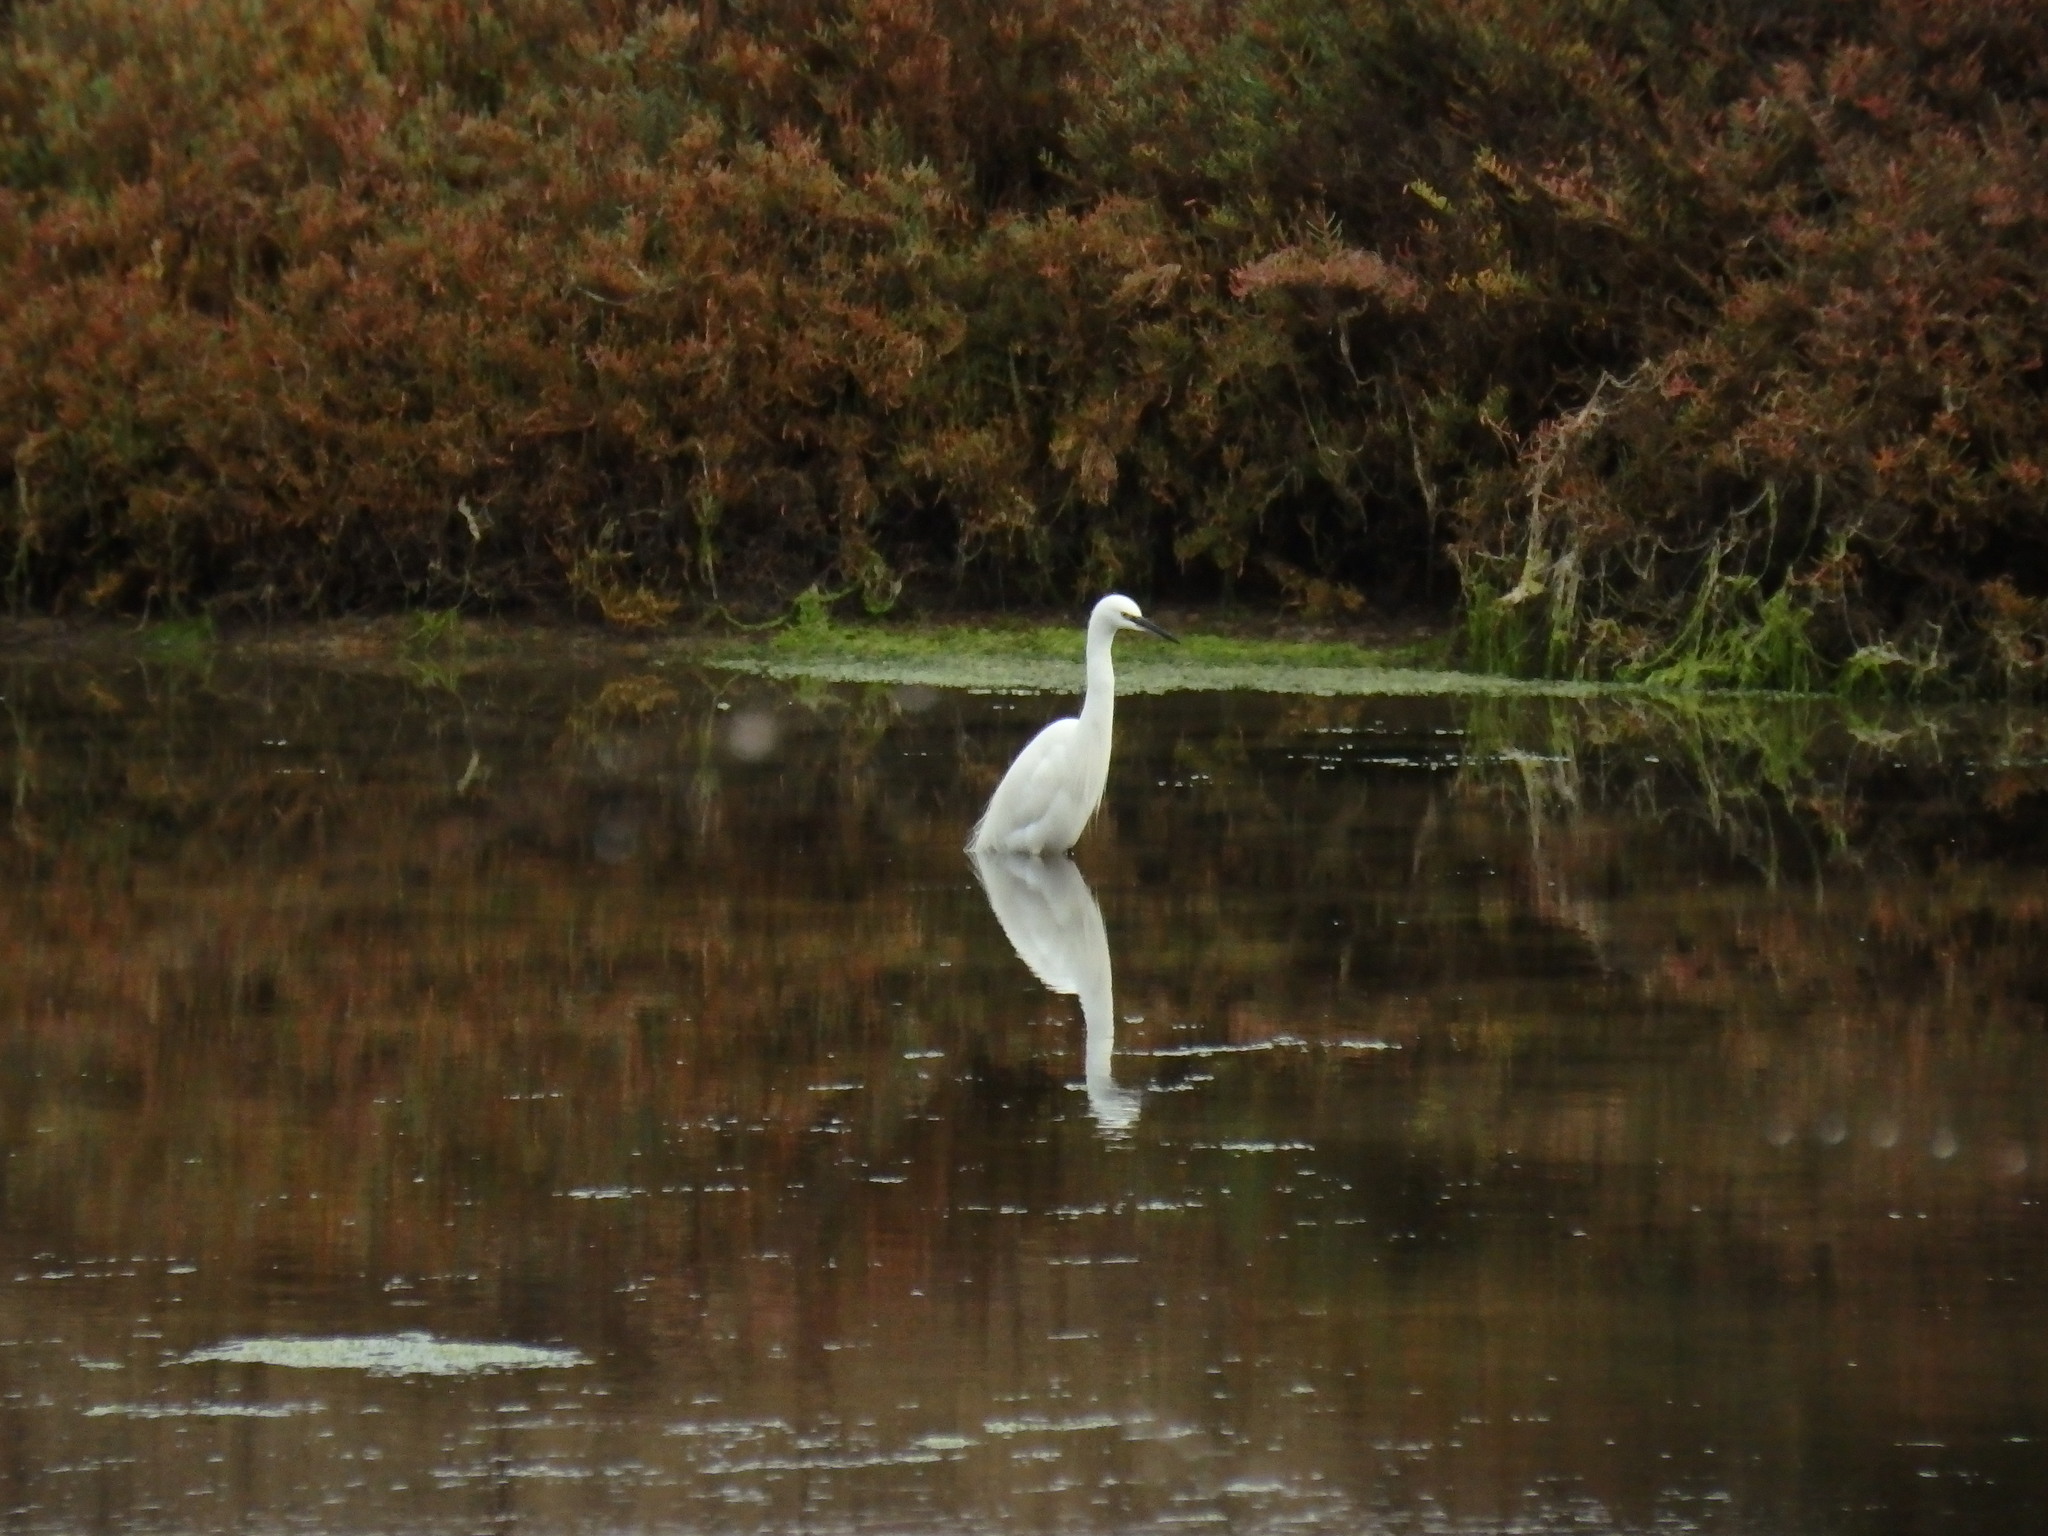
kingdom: Animalia
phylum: Chordata
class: Aves
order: Pelecaniformes
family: Ardeidae
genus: Egretta
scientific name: Egretta garzetta
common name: Little egret
